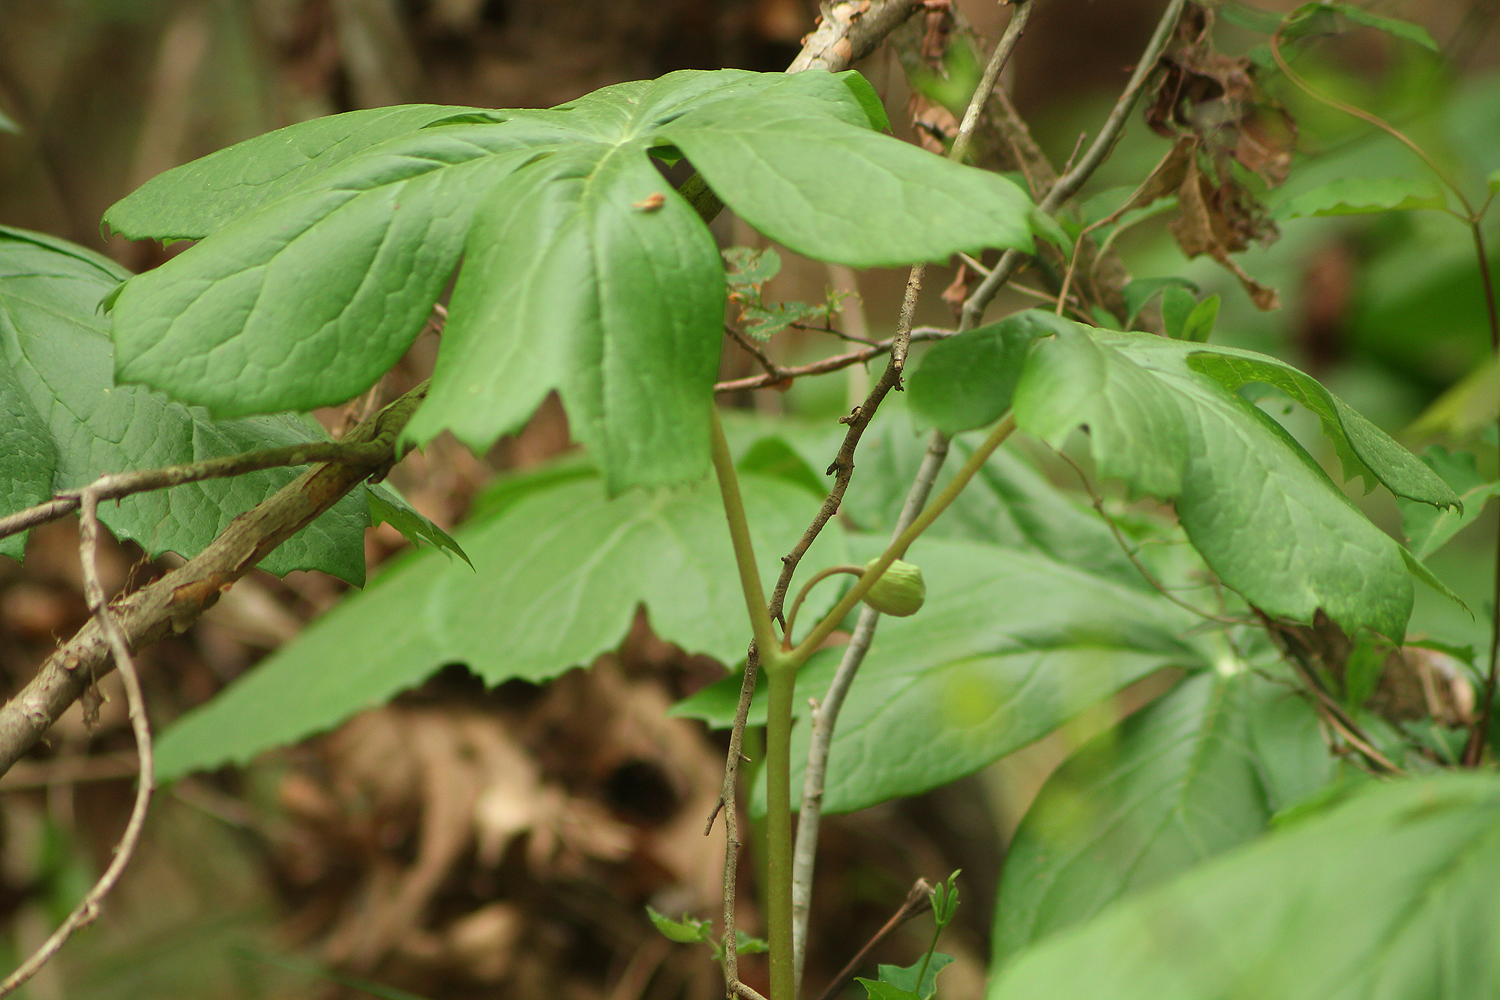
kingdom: Plantae
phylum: Tracheophyta
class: Magnoliopsida
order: Ranunculales
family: Berberidaceae
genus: Podophyllum
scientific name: Podophyllum peltatum
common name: Wild mandrake
